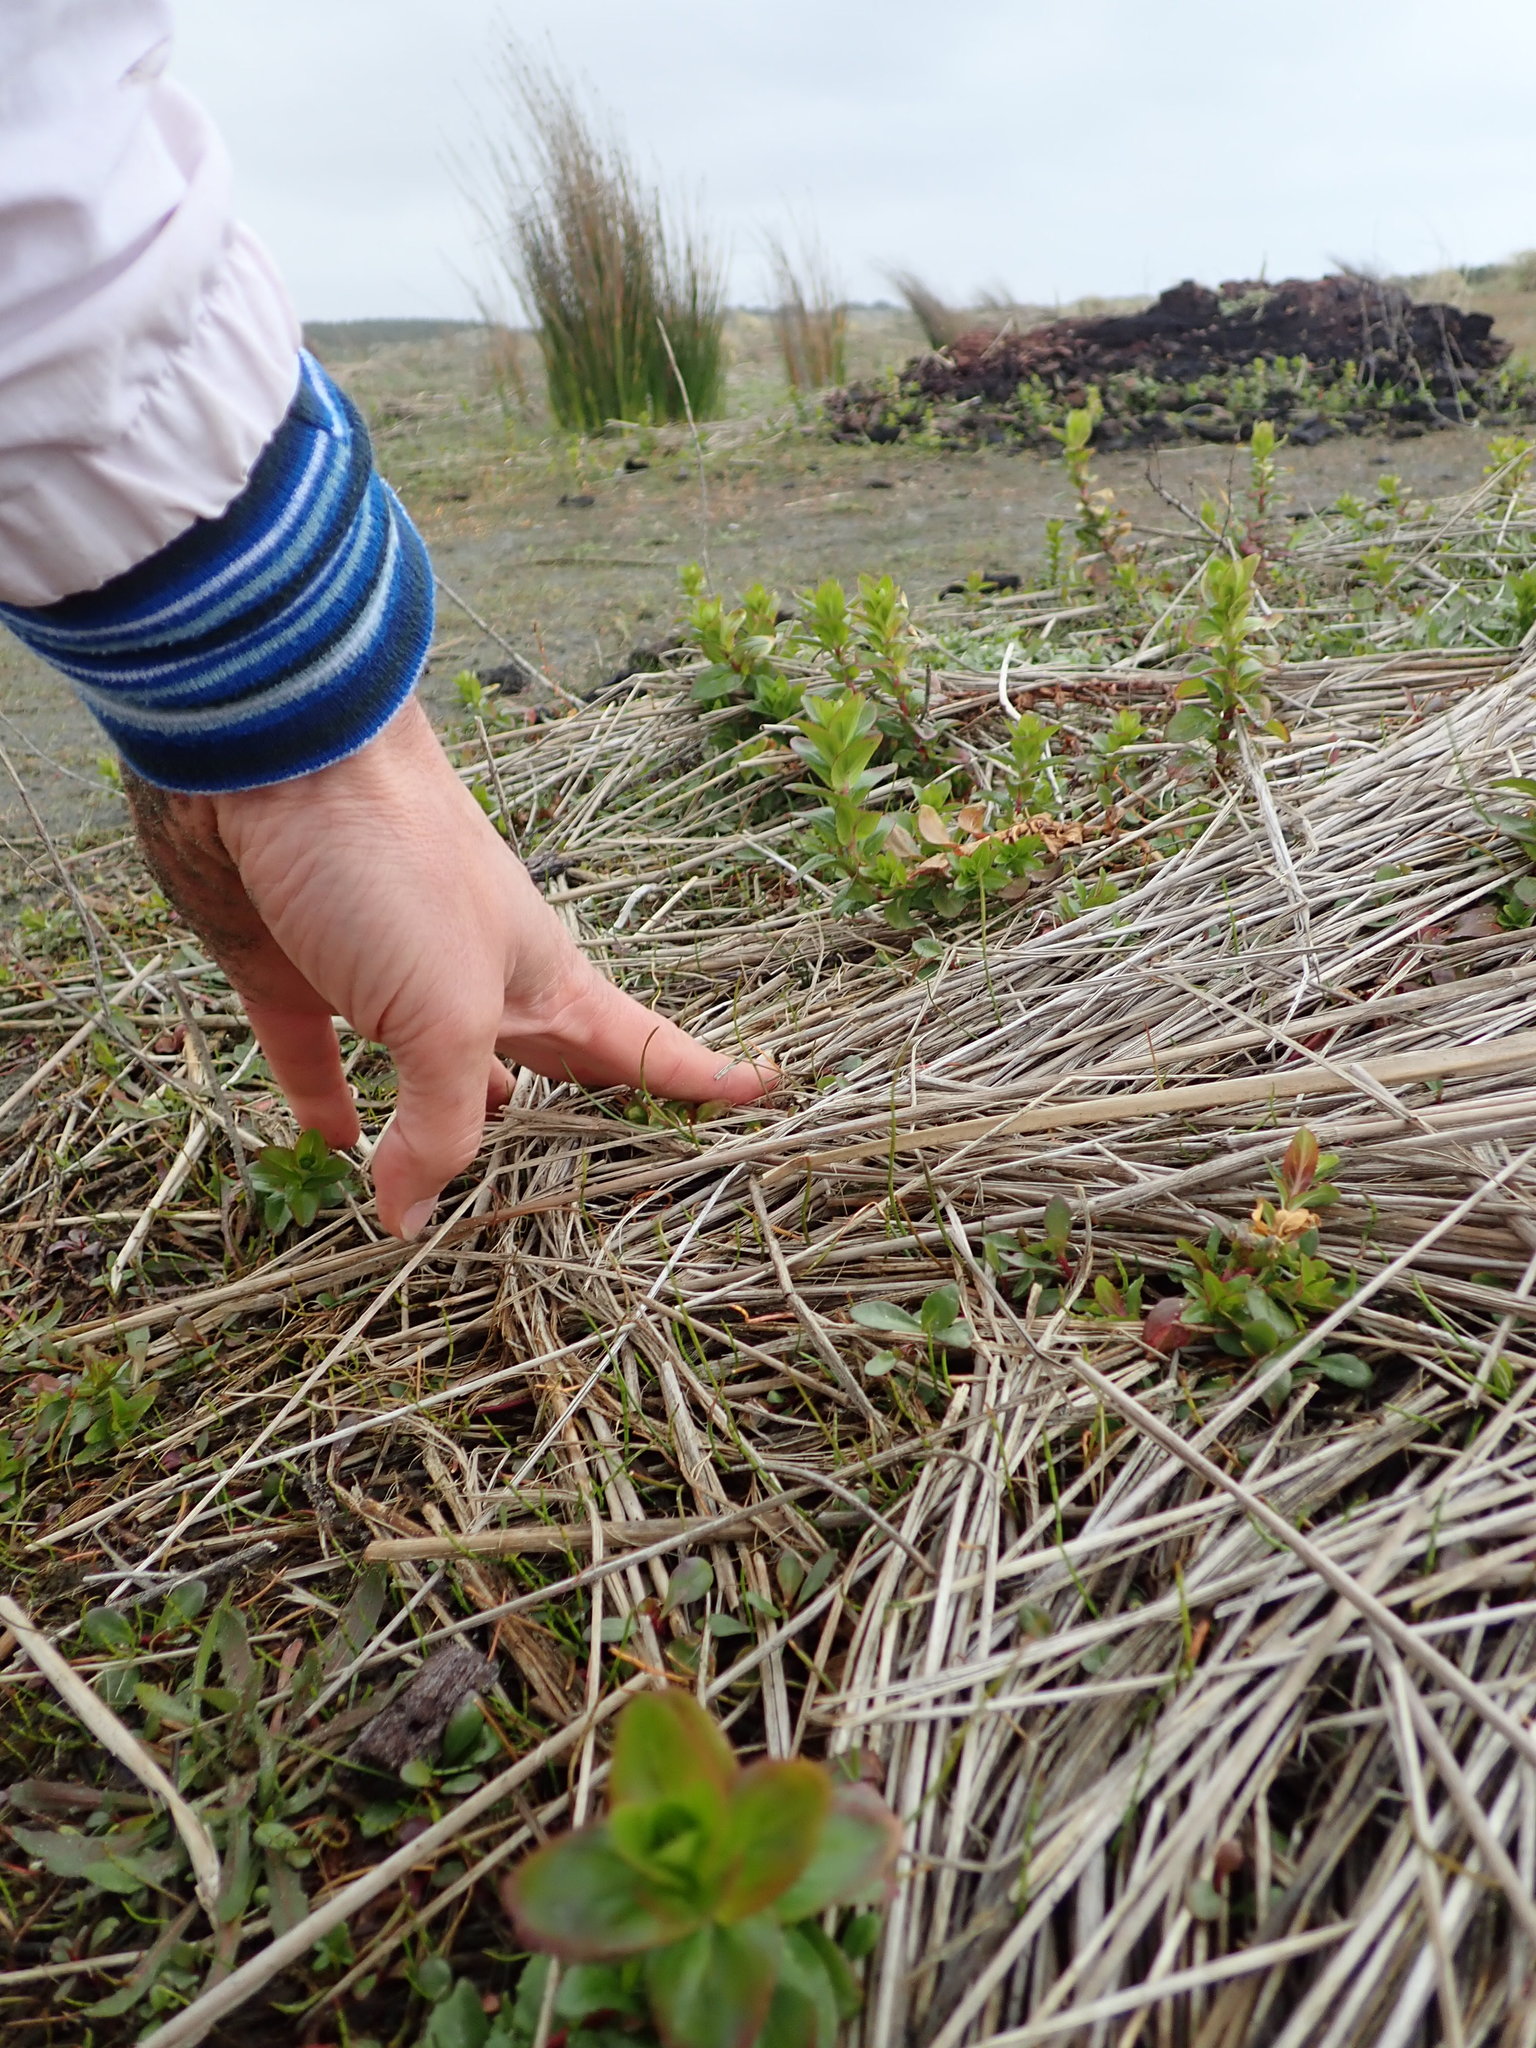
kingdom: Plantae
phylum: Tracheophyta
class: Magnoliopsida
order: Myrtales
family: Onagraceae
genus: Epilobium
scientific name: Epilobium billardiereanum
